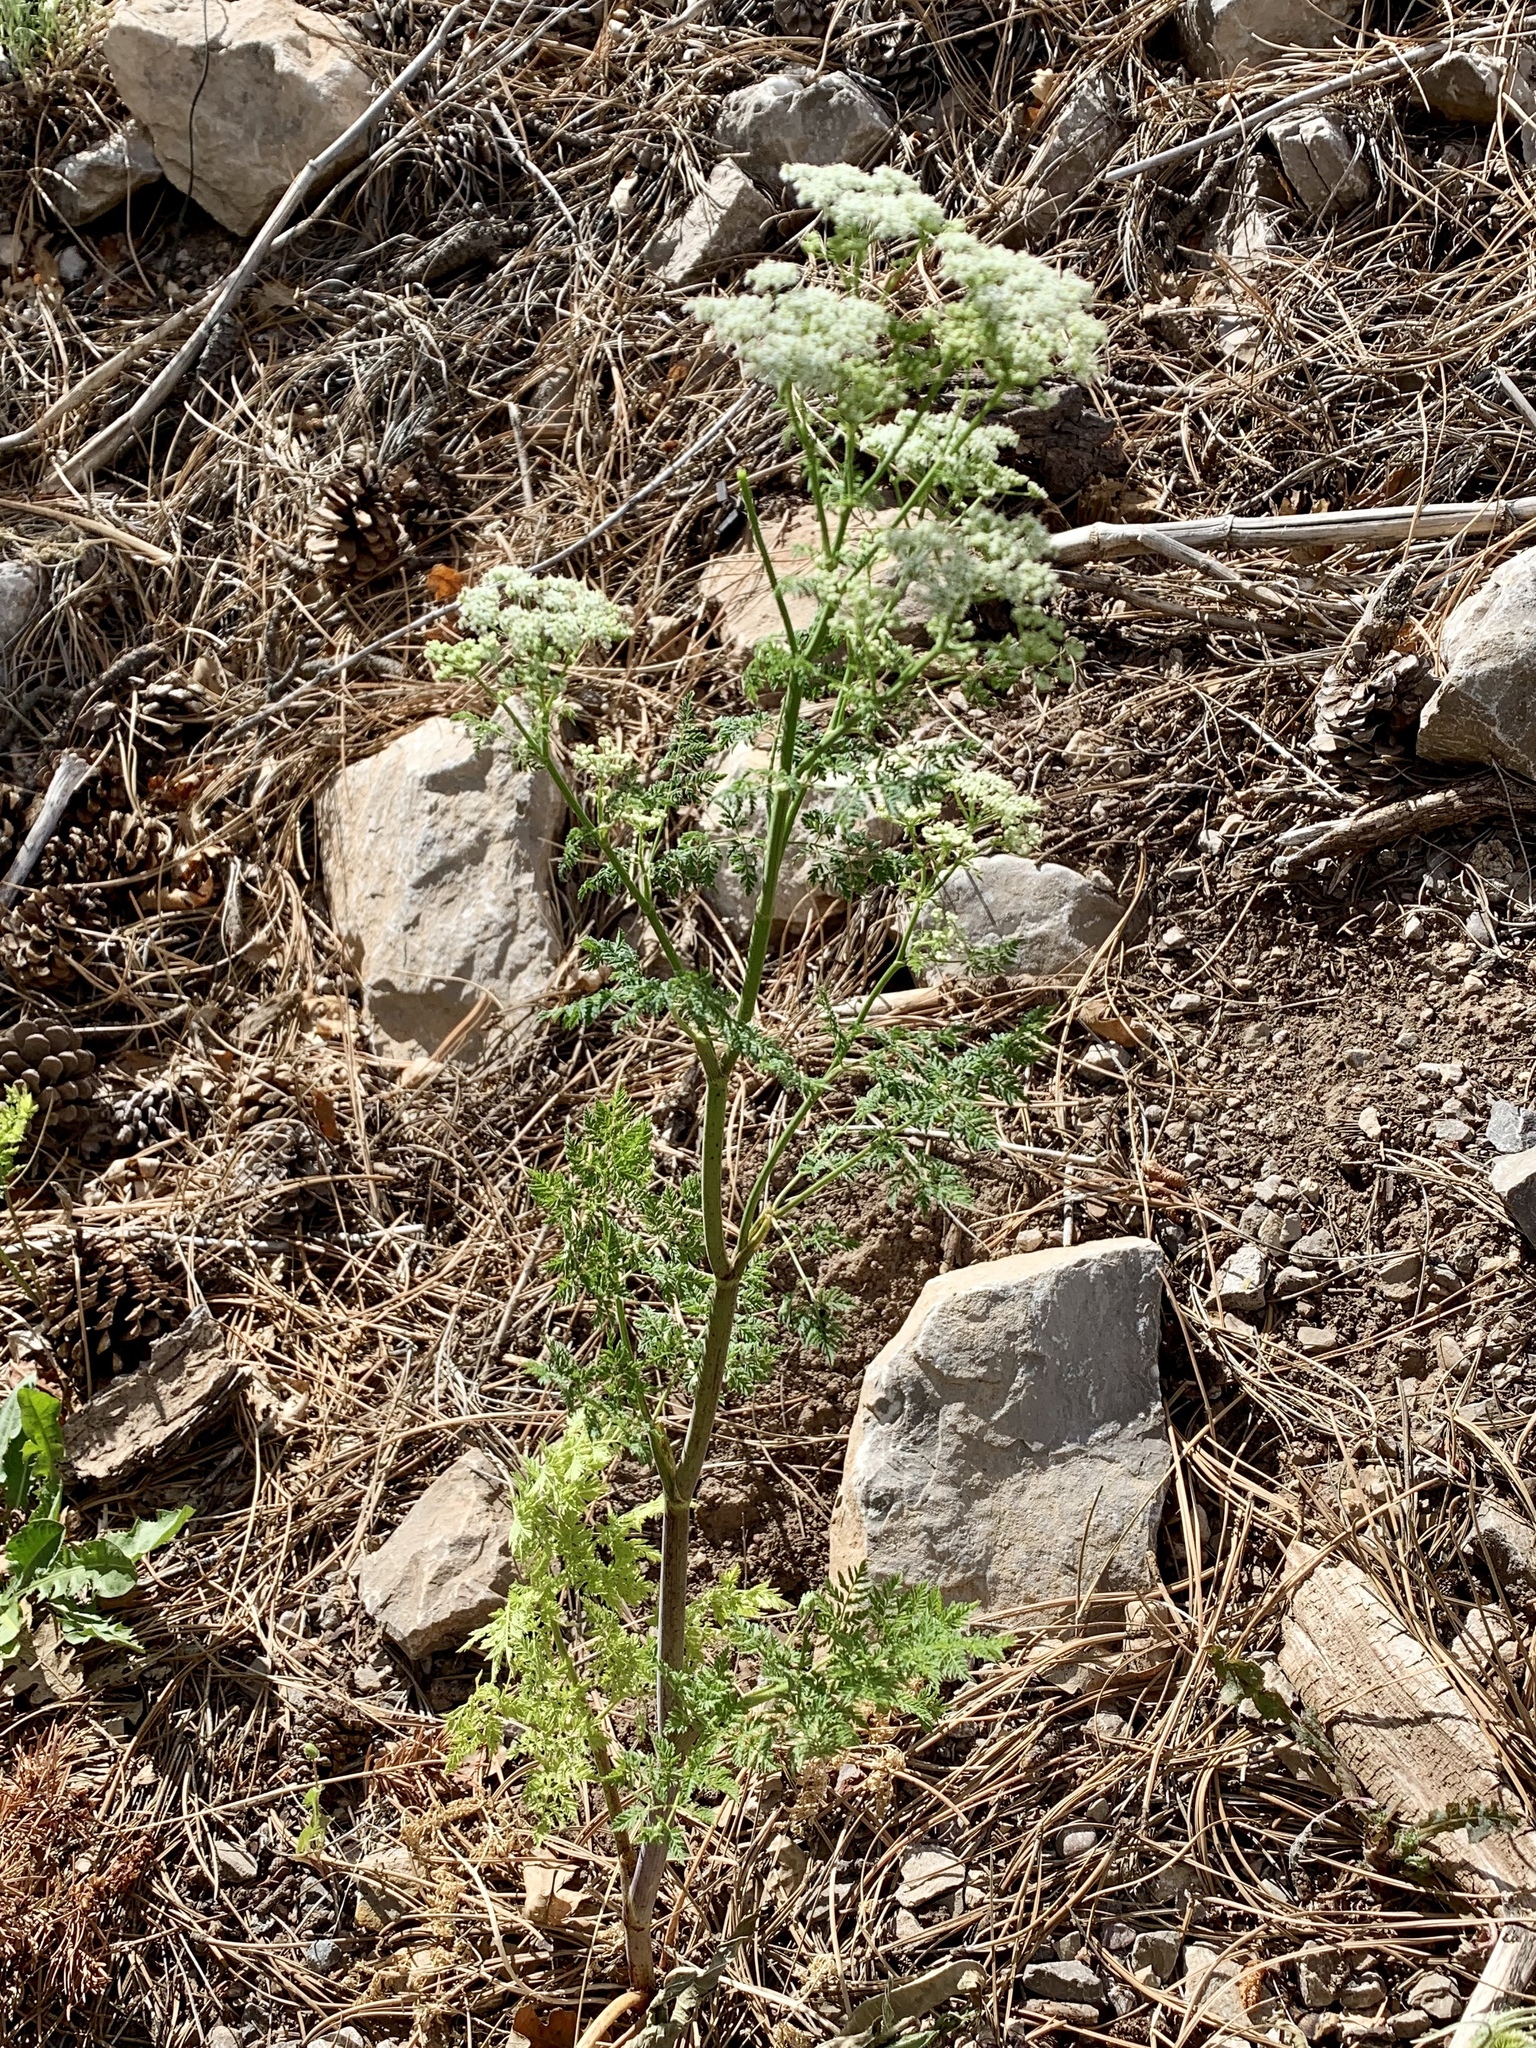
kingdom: Plantae
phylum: Tracheophyta
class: Magnoliopsida
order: Apiales
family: Apiaceae
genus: Conium
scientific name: Conium maculatum
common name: Hemlock
